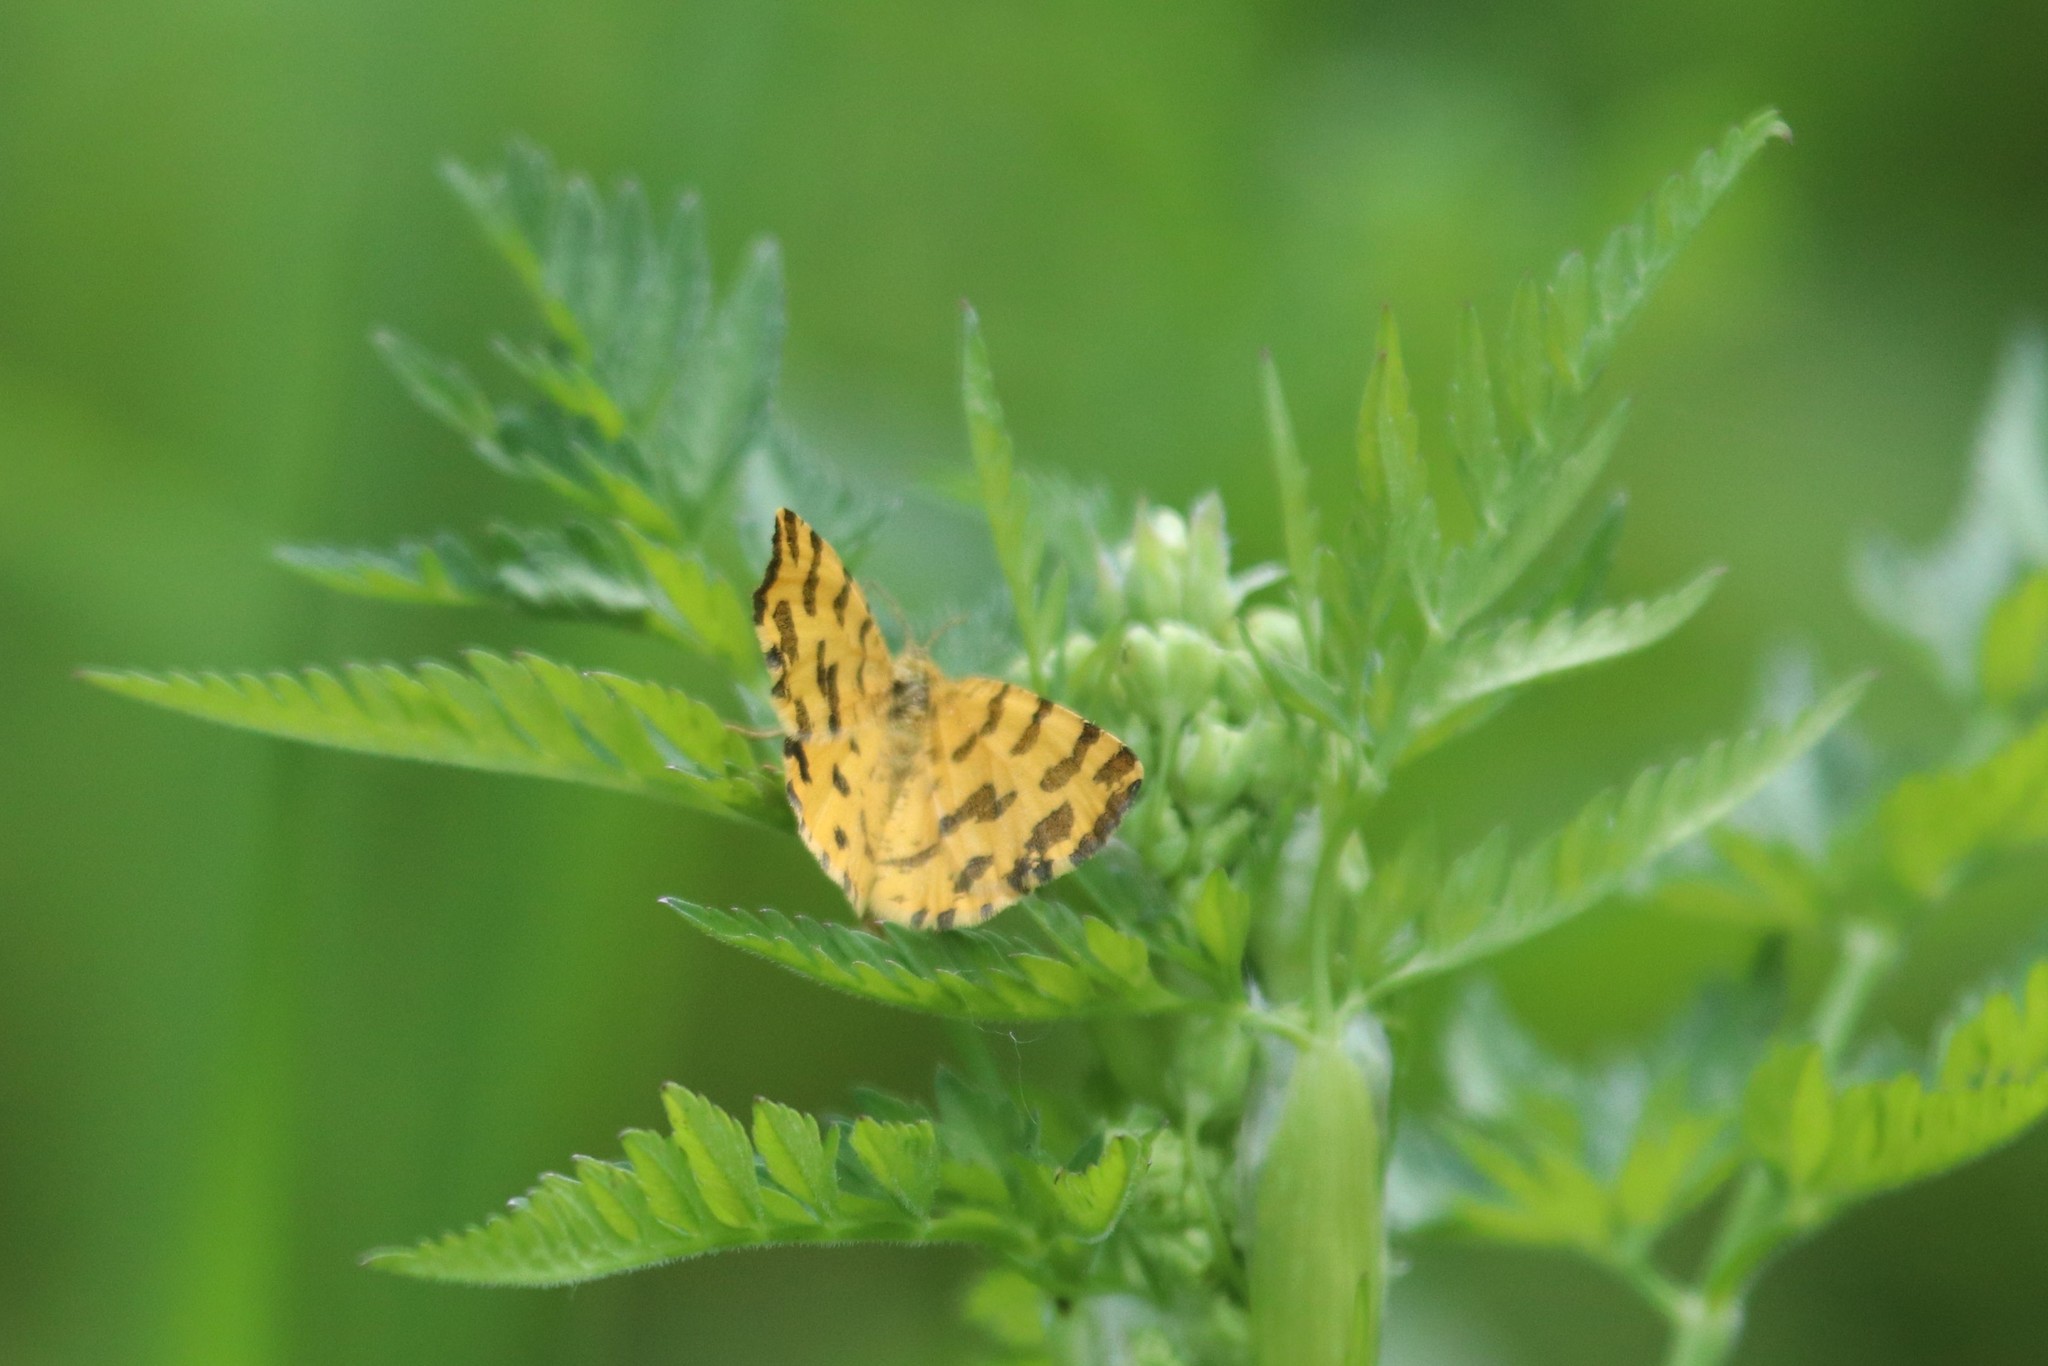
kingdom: Animalia
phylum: Arthropoda
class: Insecta
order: Lepidoptera
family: Geometridae
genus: Pseudopanthera
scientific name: Pseudopanthera macularia
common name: Speckled yellow
